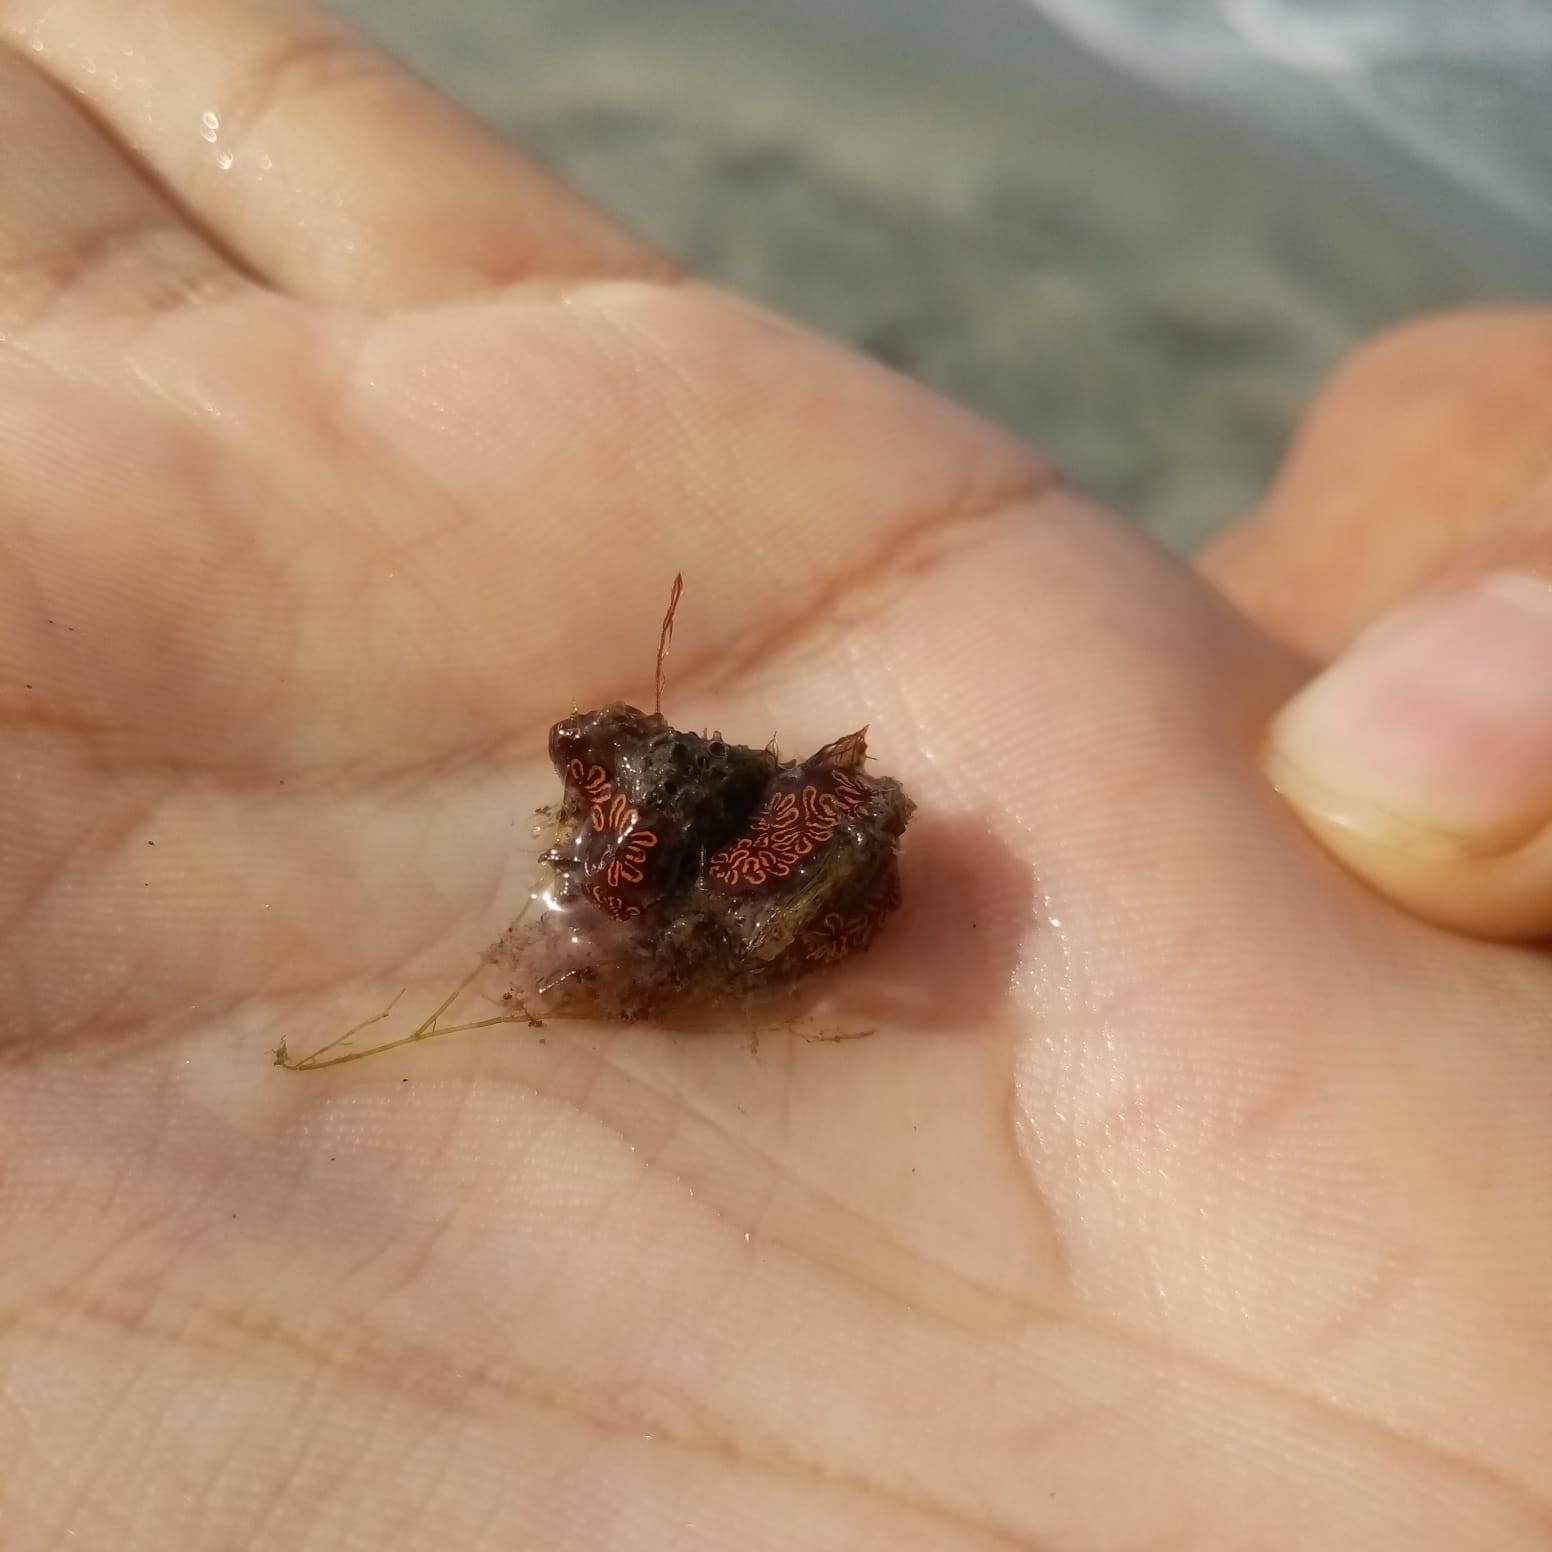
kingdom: Animalia
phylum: Chordata
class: Ascidiacea
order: Stolidobranchia
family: Styelidae
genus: Botrylloides
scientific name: Botrylloides niger
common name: Black synascidia
